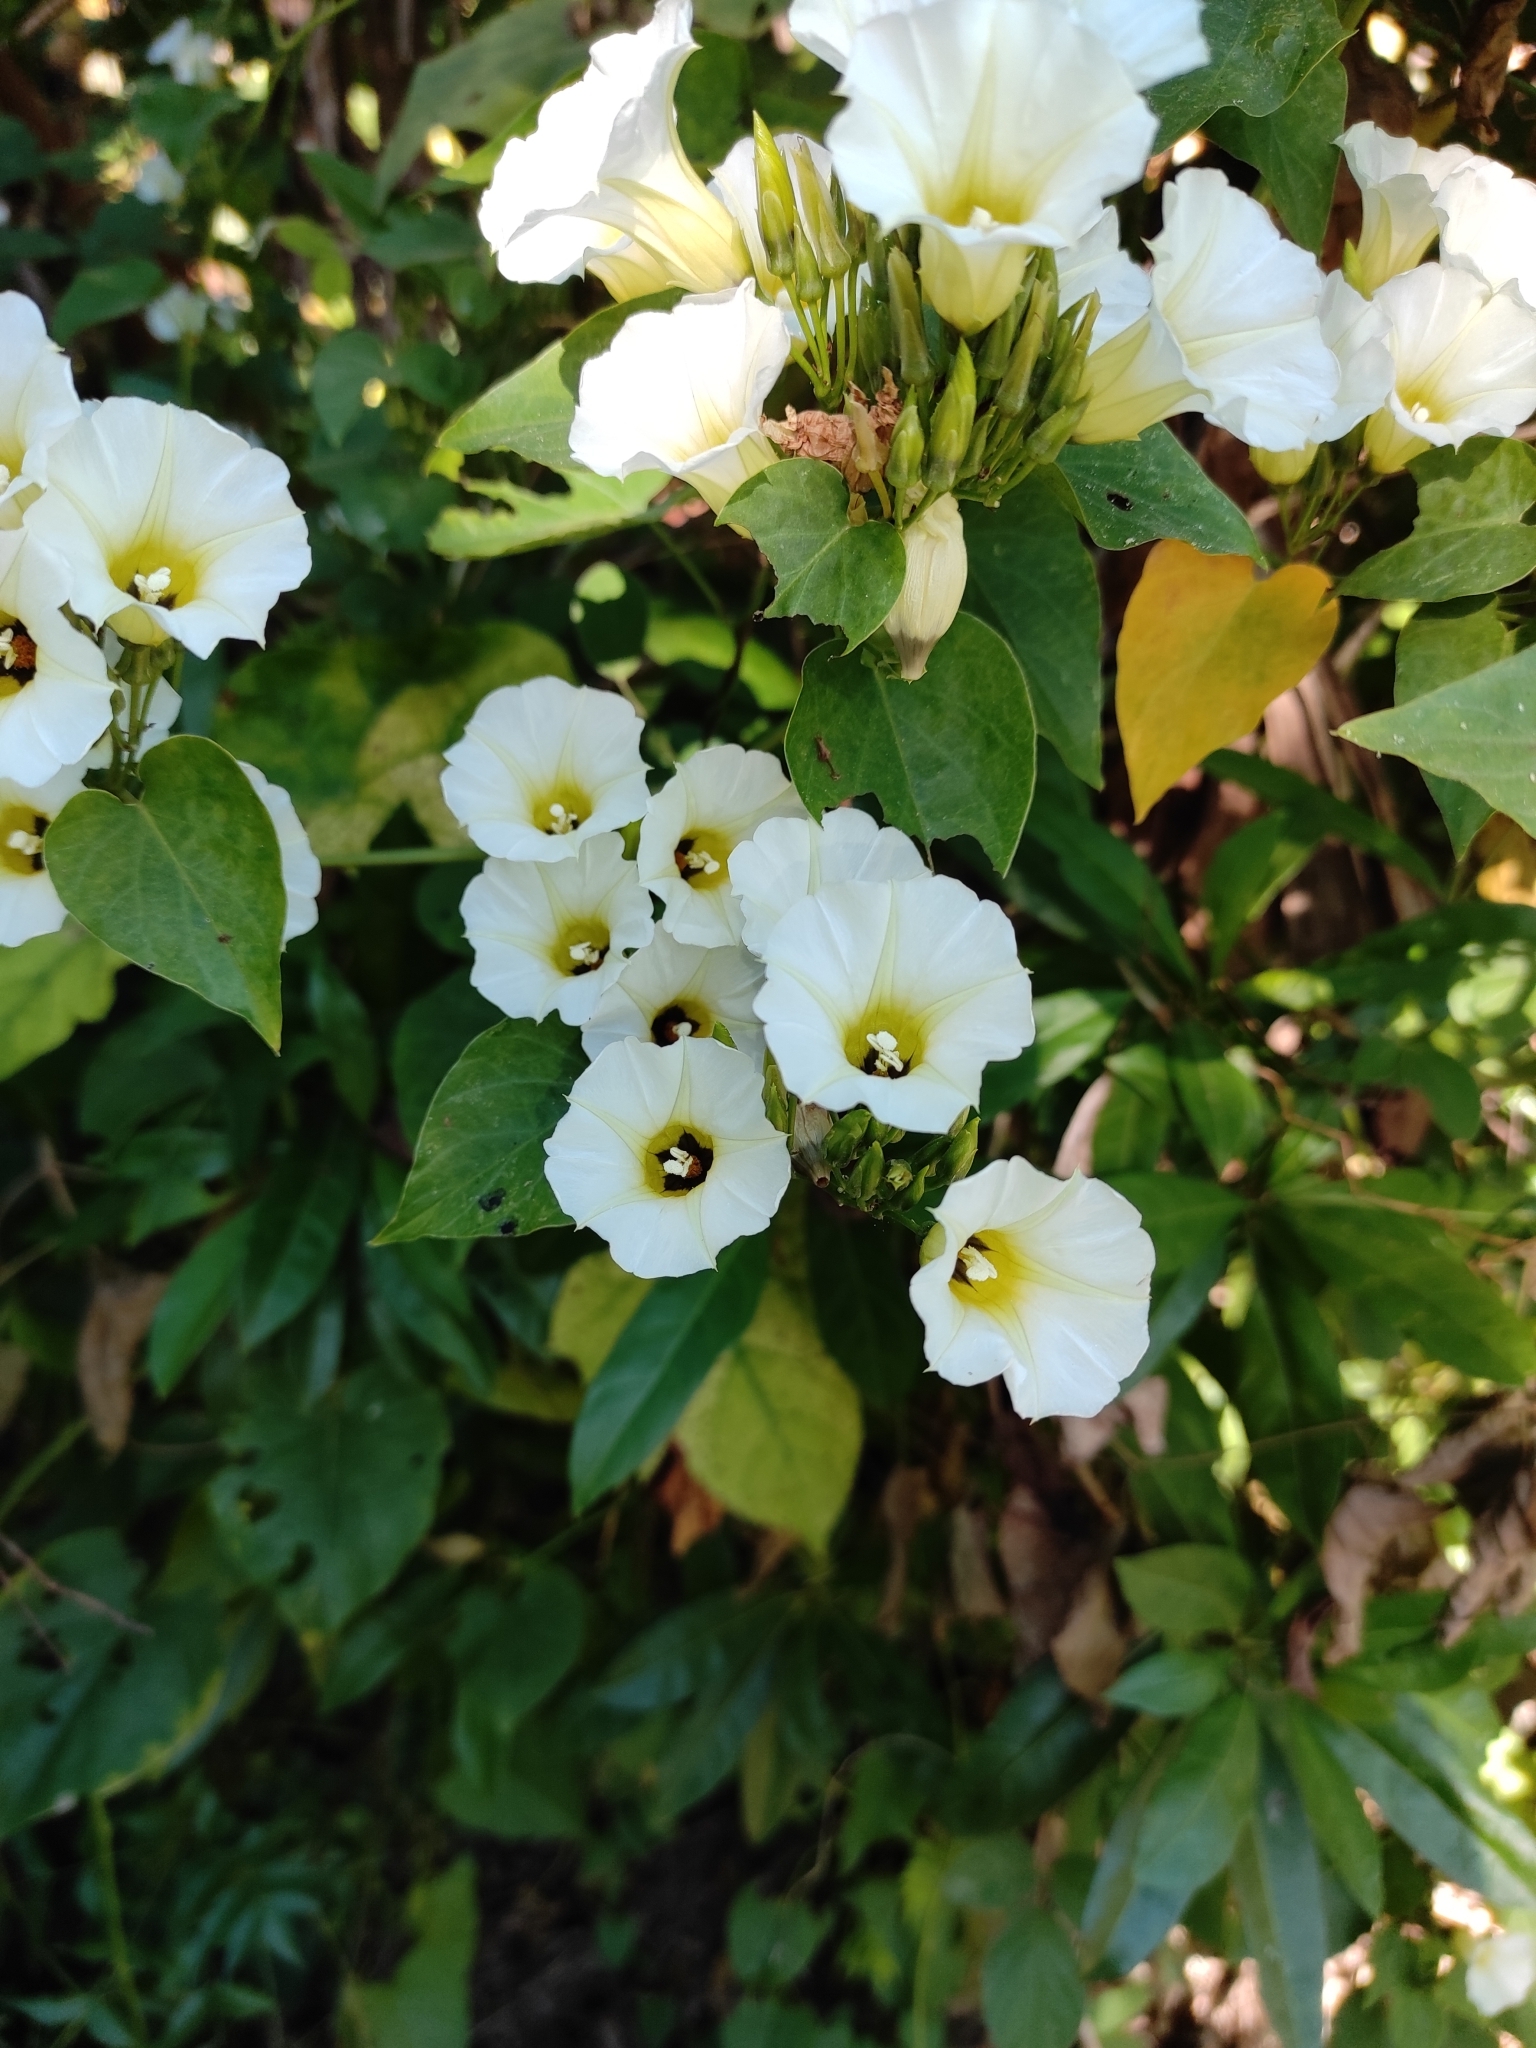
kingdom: Plantae
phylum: Tracheophyta
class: Magnoliopsida
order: Solanales
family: Convolvulaceae
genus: Ipomoea
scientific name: Ipomoea corymbosa
